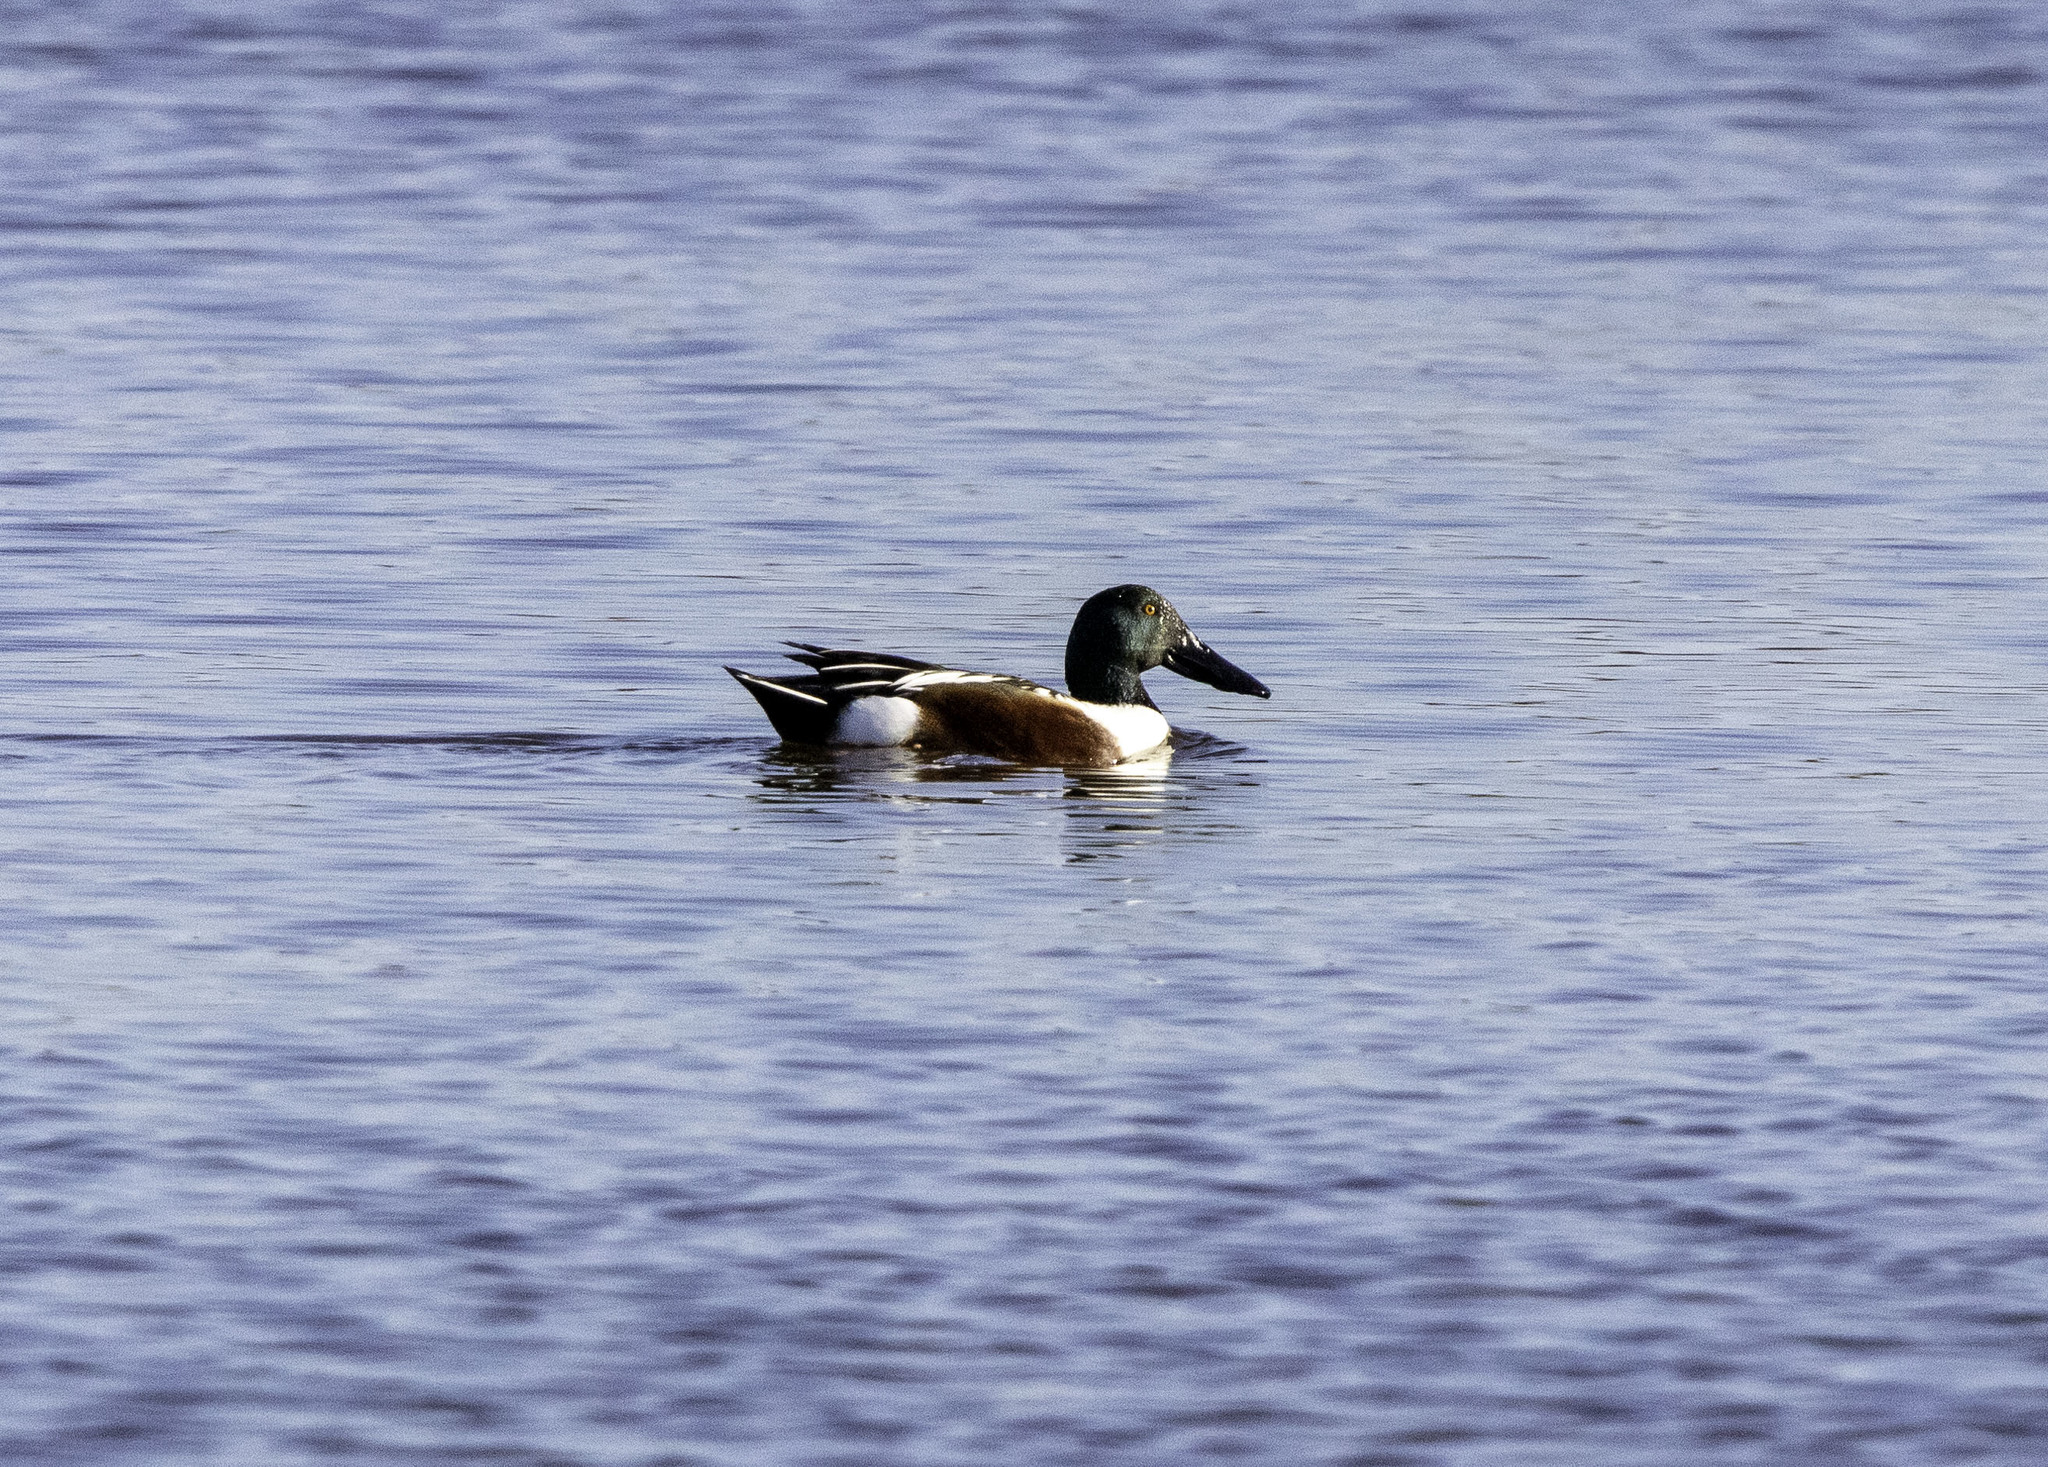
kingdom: Animalia
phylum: Chordata
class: Aves
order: Anseriformes
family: Anatidae
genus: Spatula
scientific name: Spatula clypeata
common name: Northern shoveler
